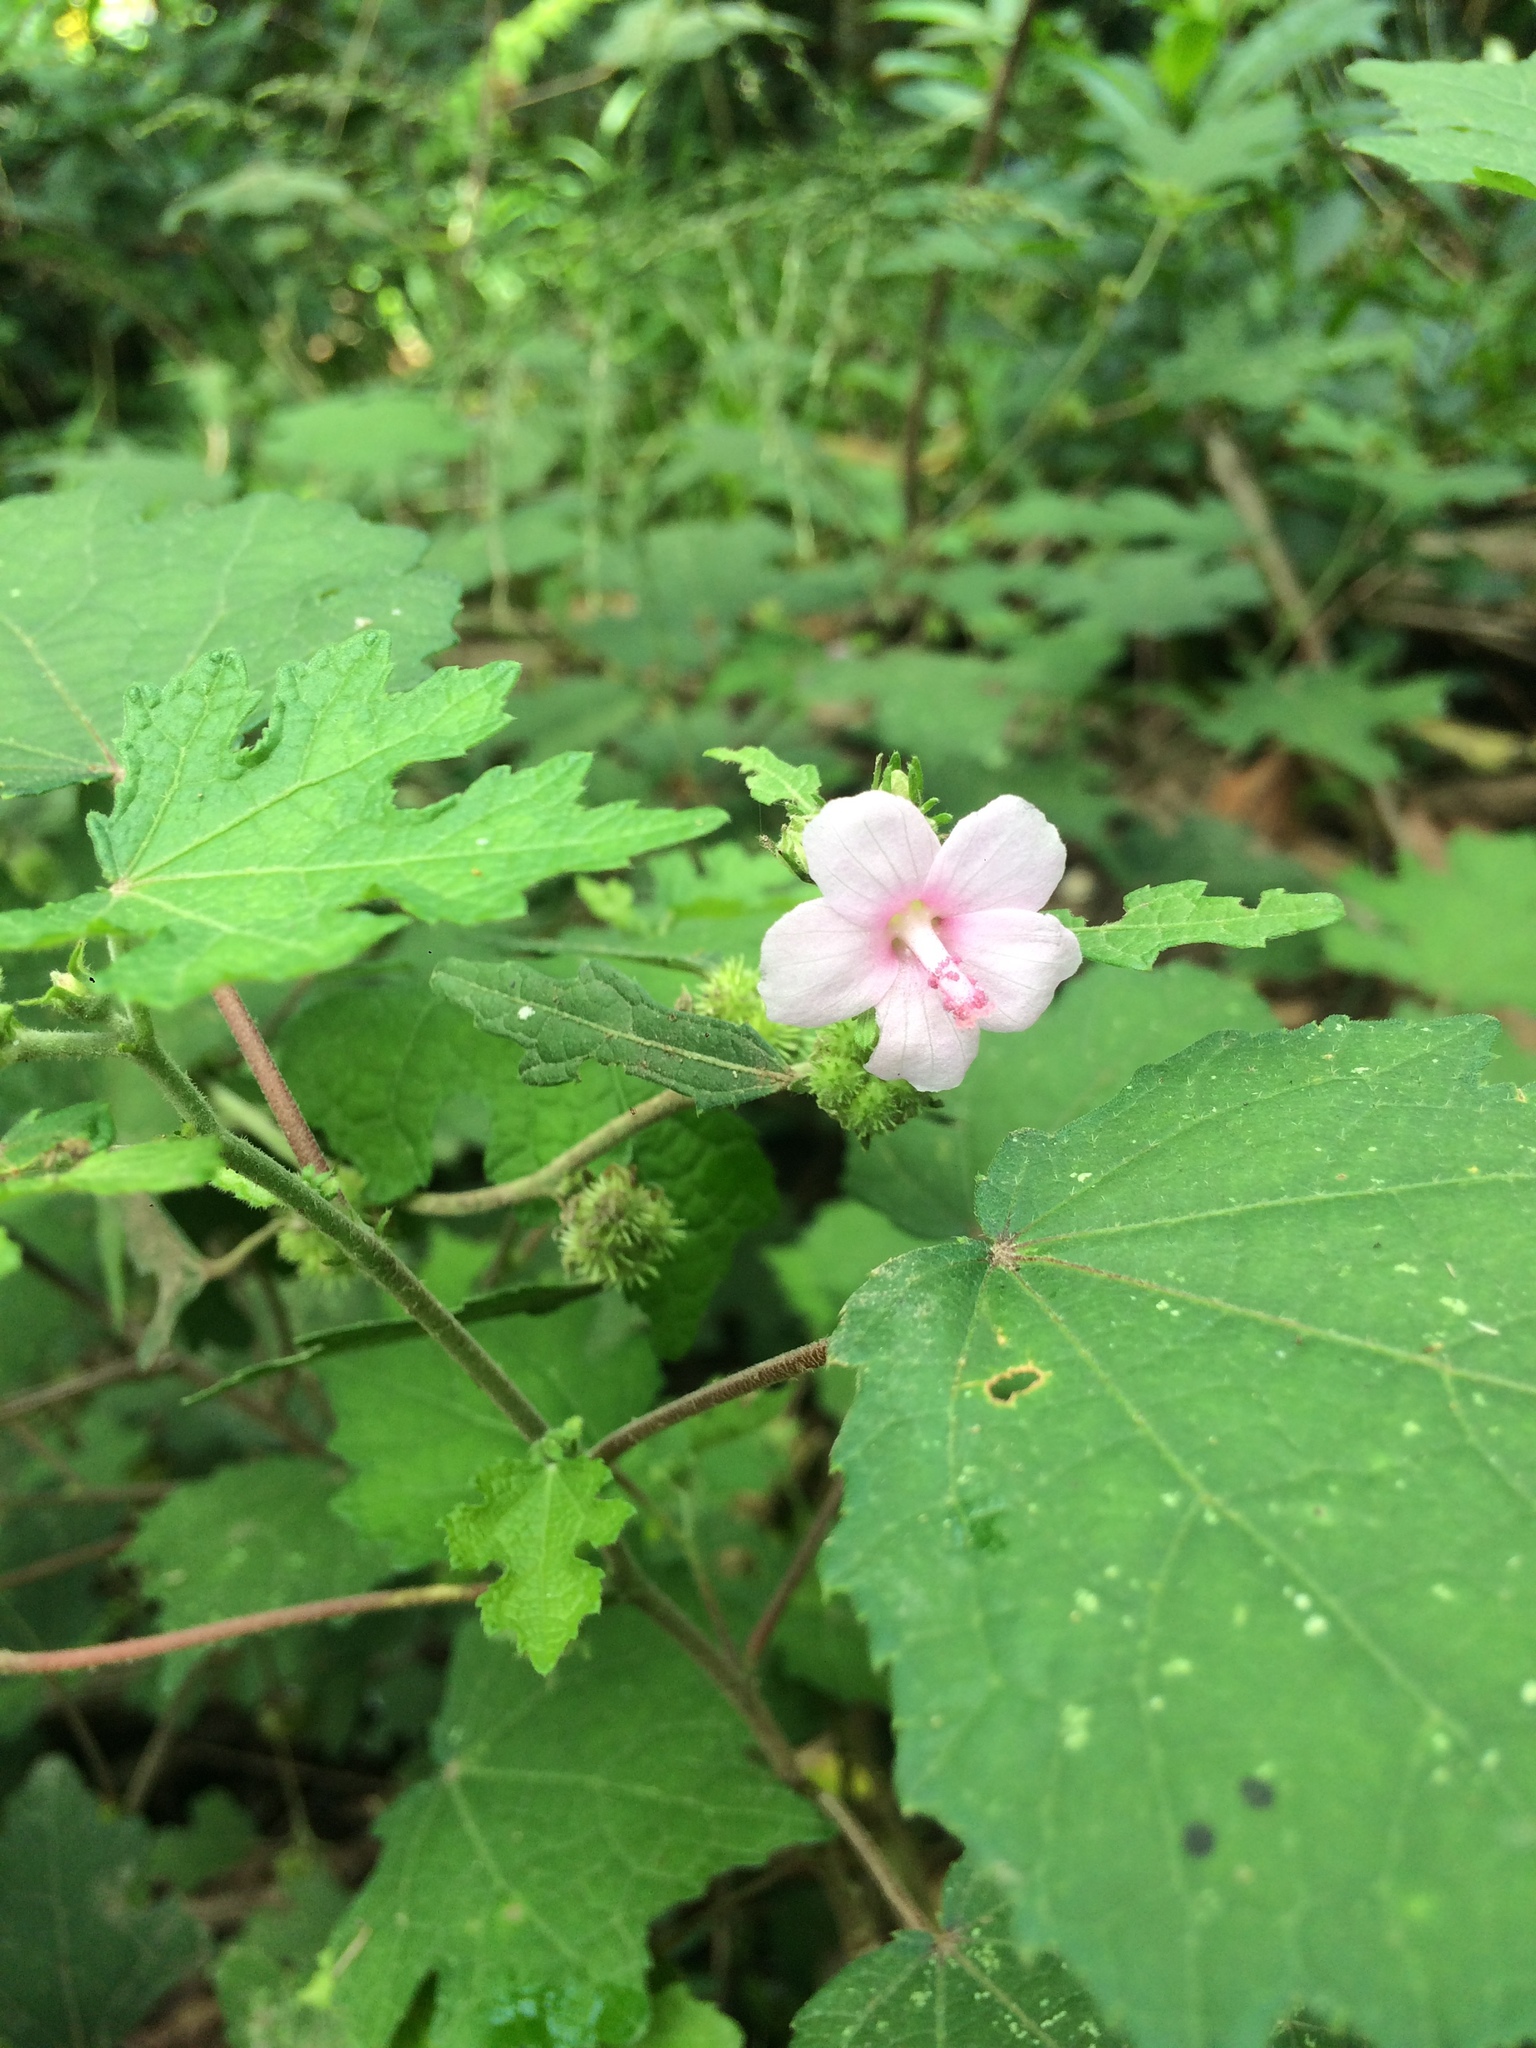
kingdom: Plantae
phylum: Tracheophyta
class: Magnoliopsida
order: Malvales
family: Malvaceae
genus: Urena
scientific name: Urena lobata
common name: Caesarweed
